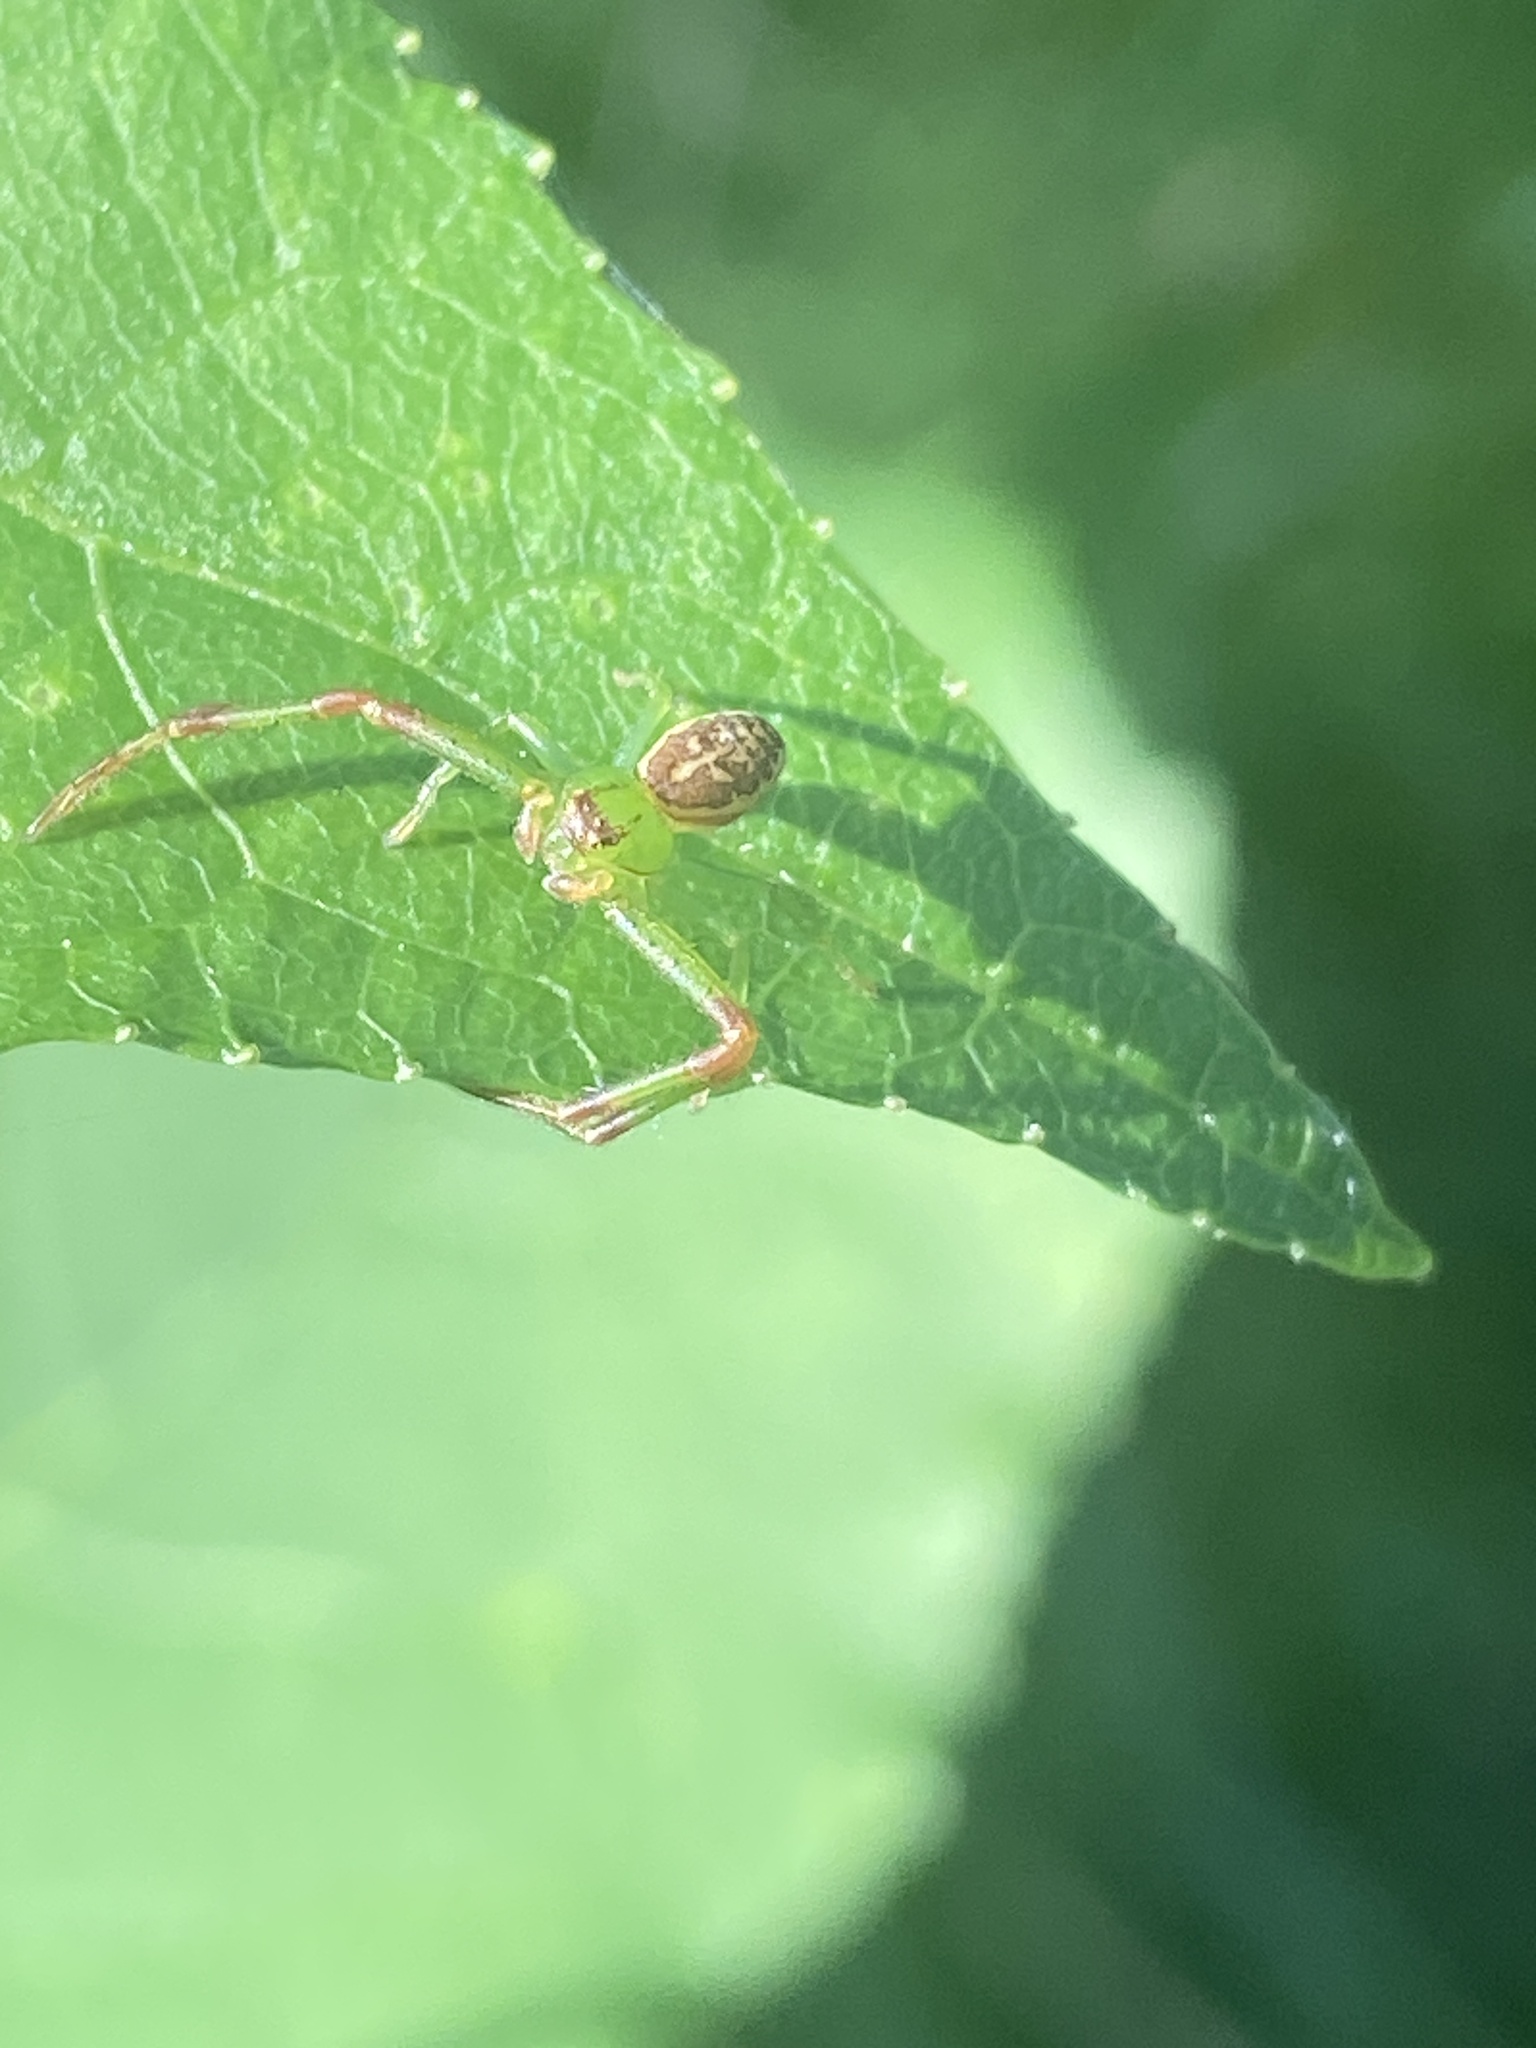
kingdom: Animalia
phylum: Arthropoda
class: Arachnida
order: Araneae
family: Thomisidae
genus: Diaea
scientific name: Diaea dorsata
